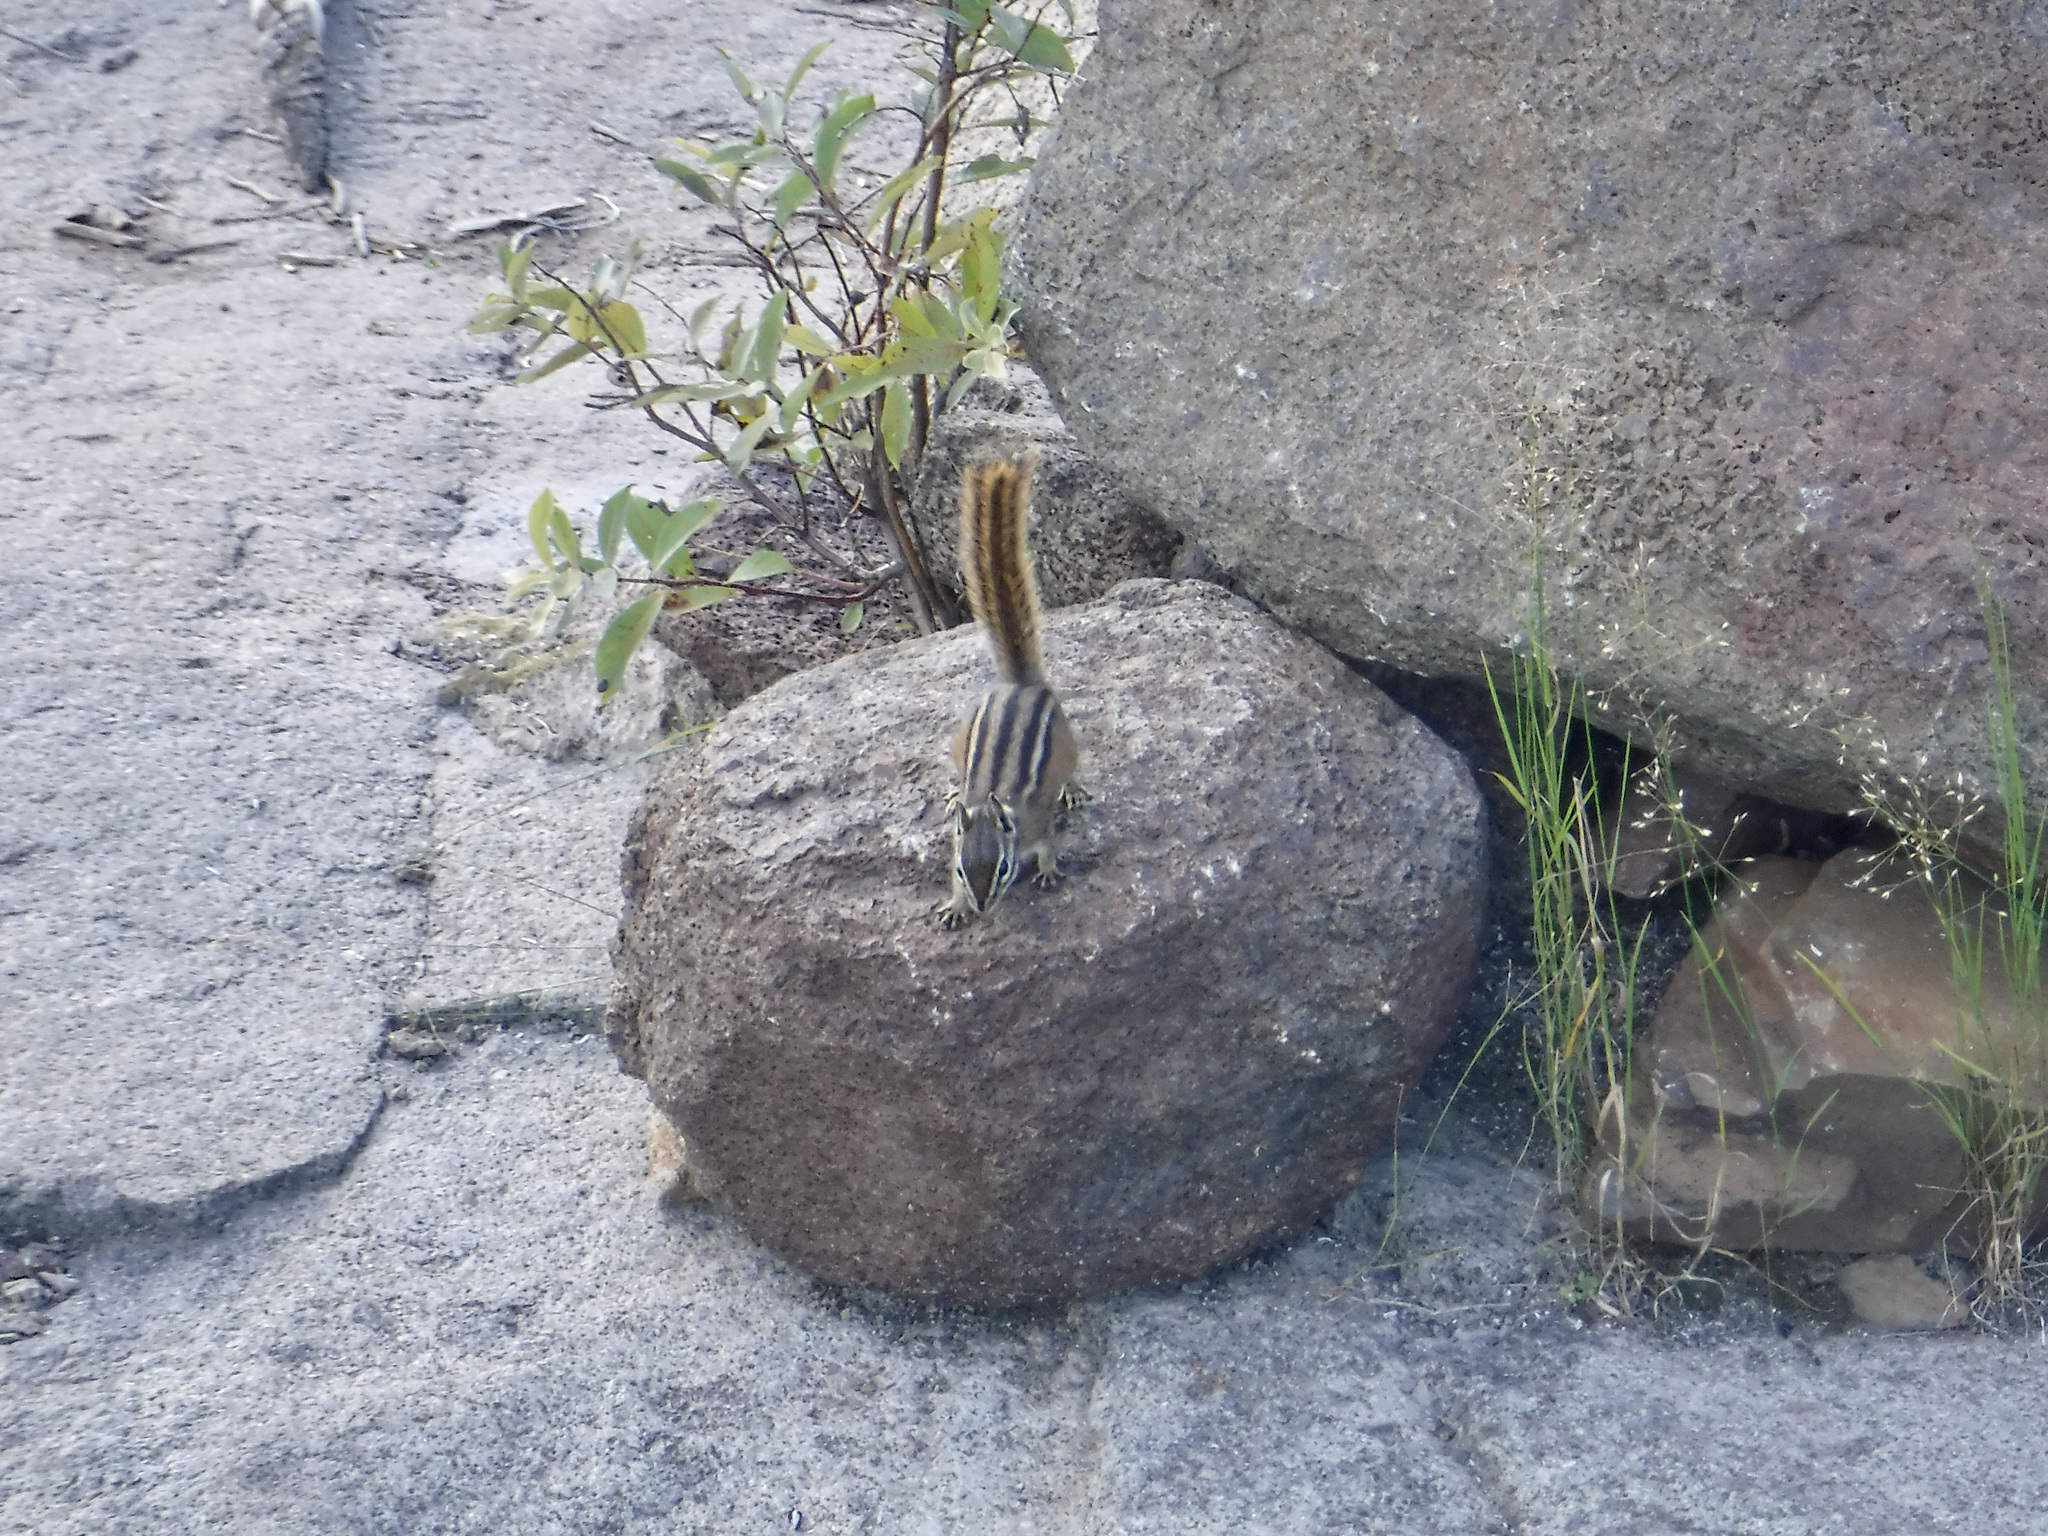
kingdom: Animalia
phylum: Chordata
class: Mammalia
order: Rodentia
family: Sciuridae
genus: Tamias
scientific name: Tamias minimus
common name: Least chipmunk
